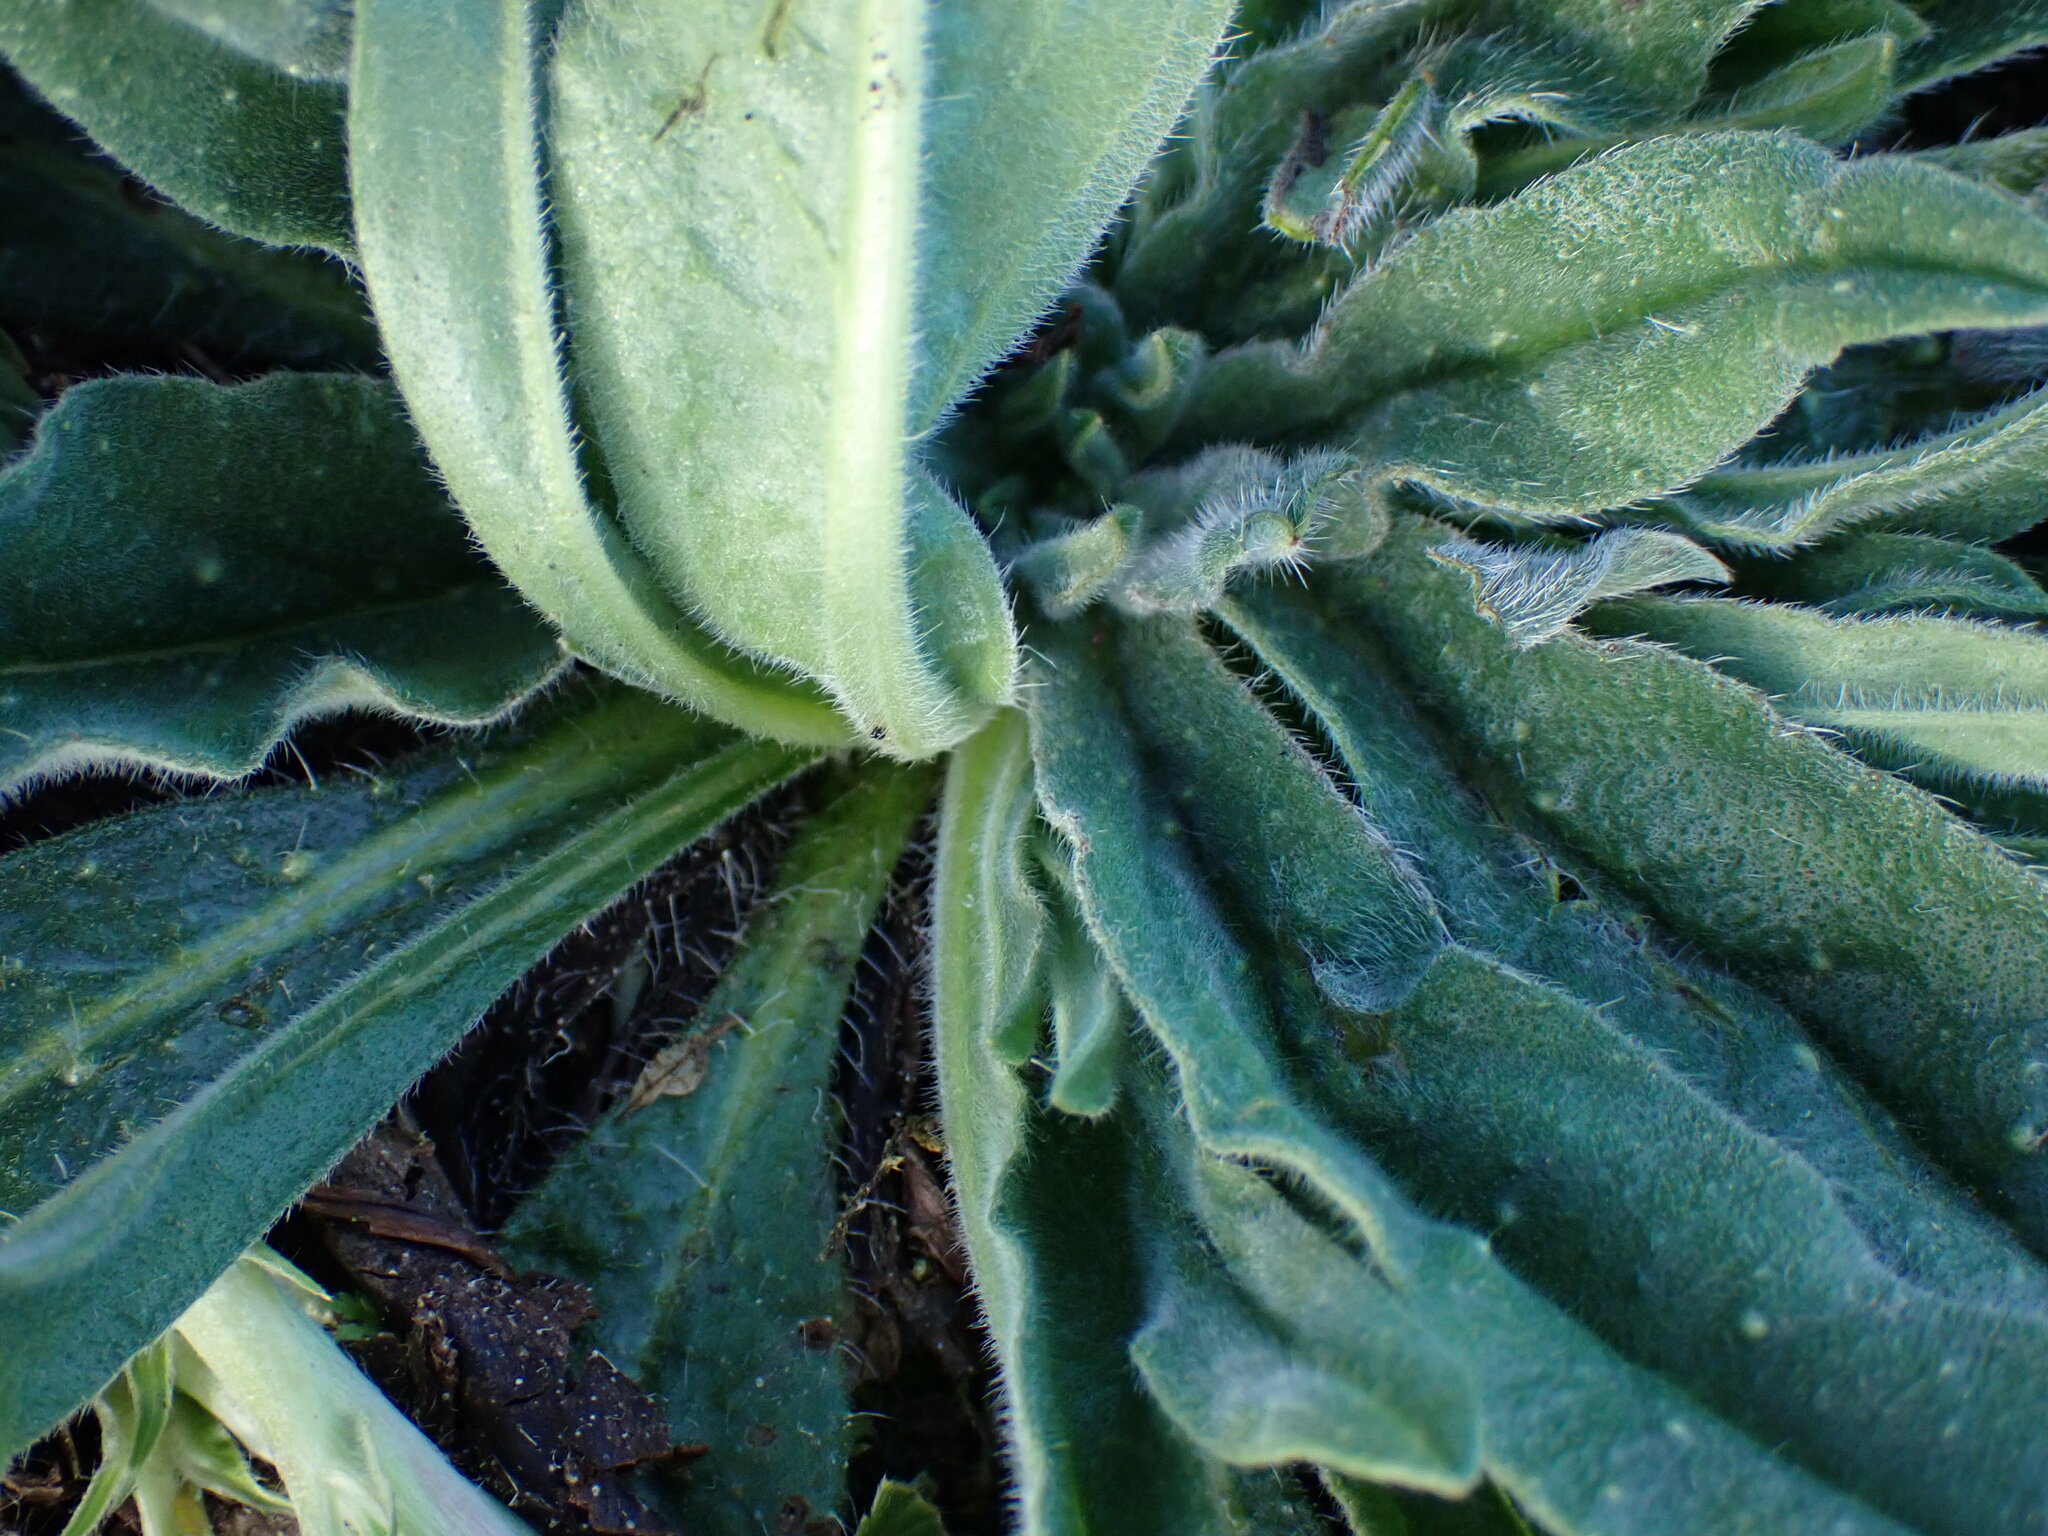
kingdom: Plantae
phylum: Tracheophyta
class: Magnoliopsida
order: Boraginales
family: Boraginaceae
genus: Echium
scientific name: Echium vulgare
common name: Common viper's bugloss
